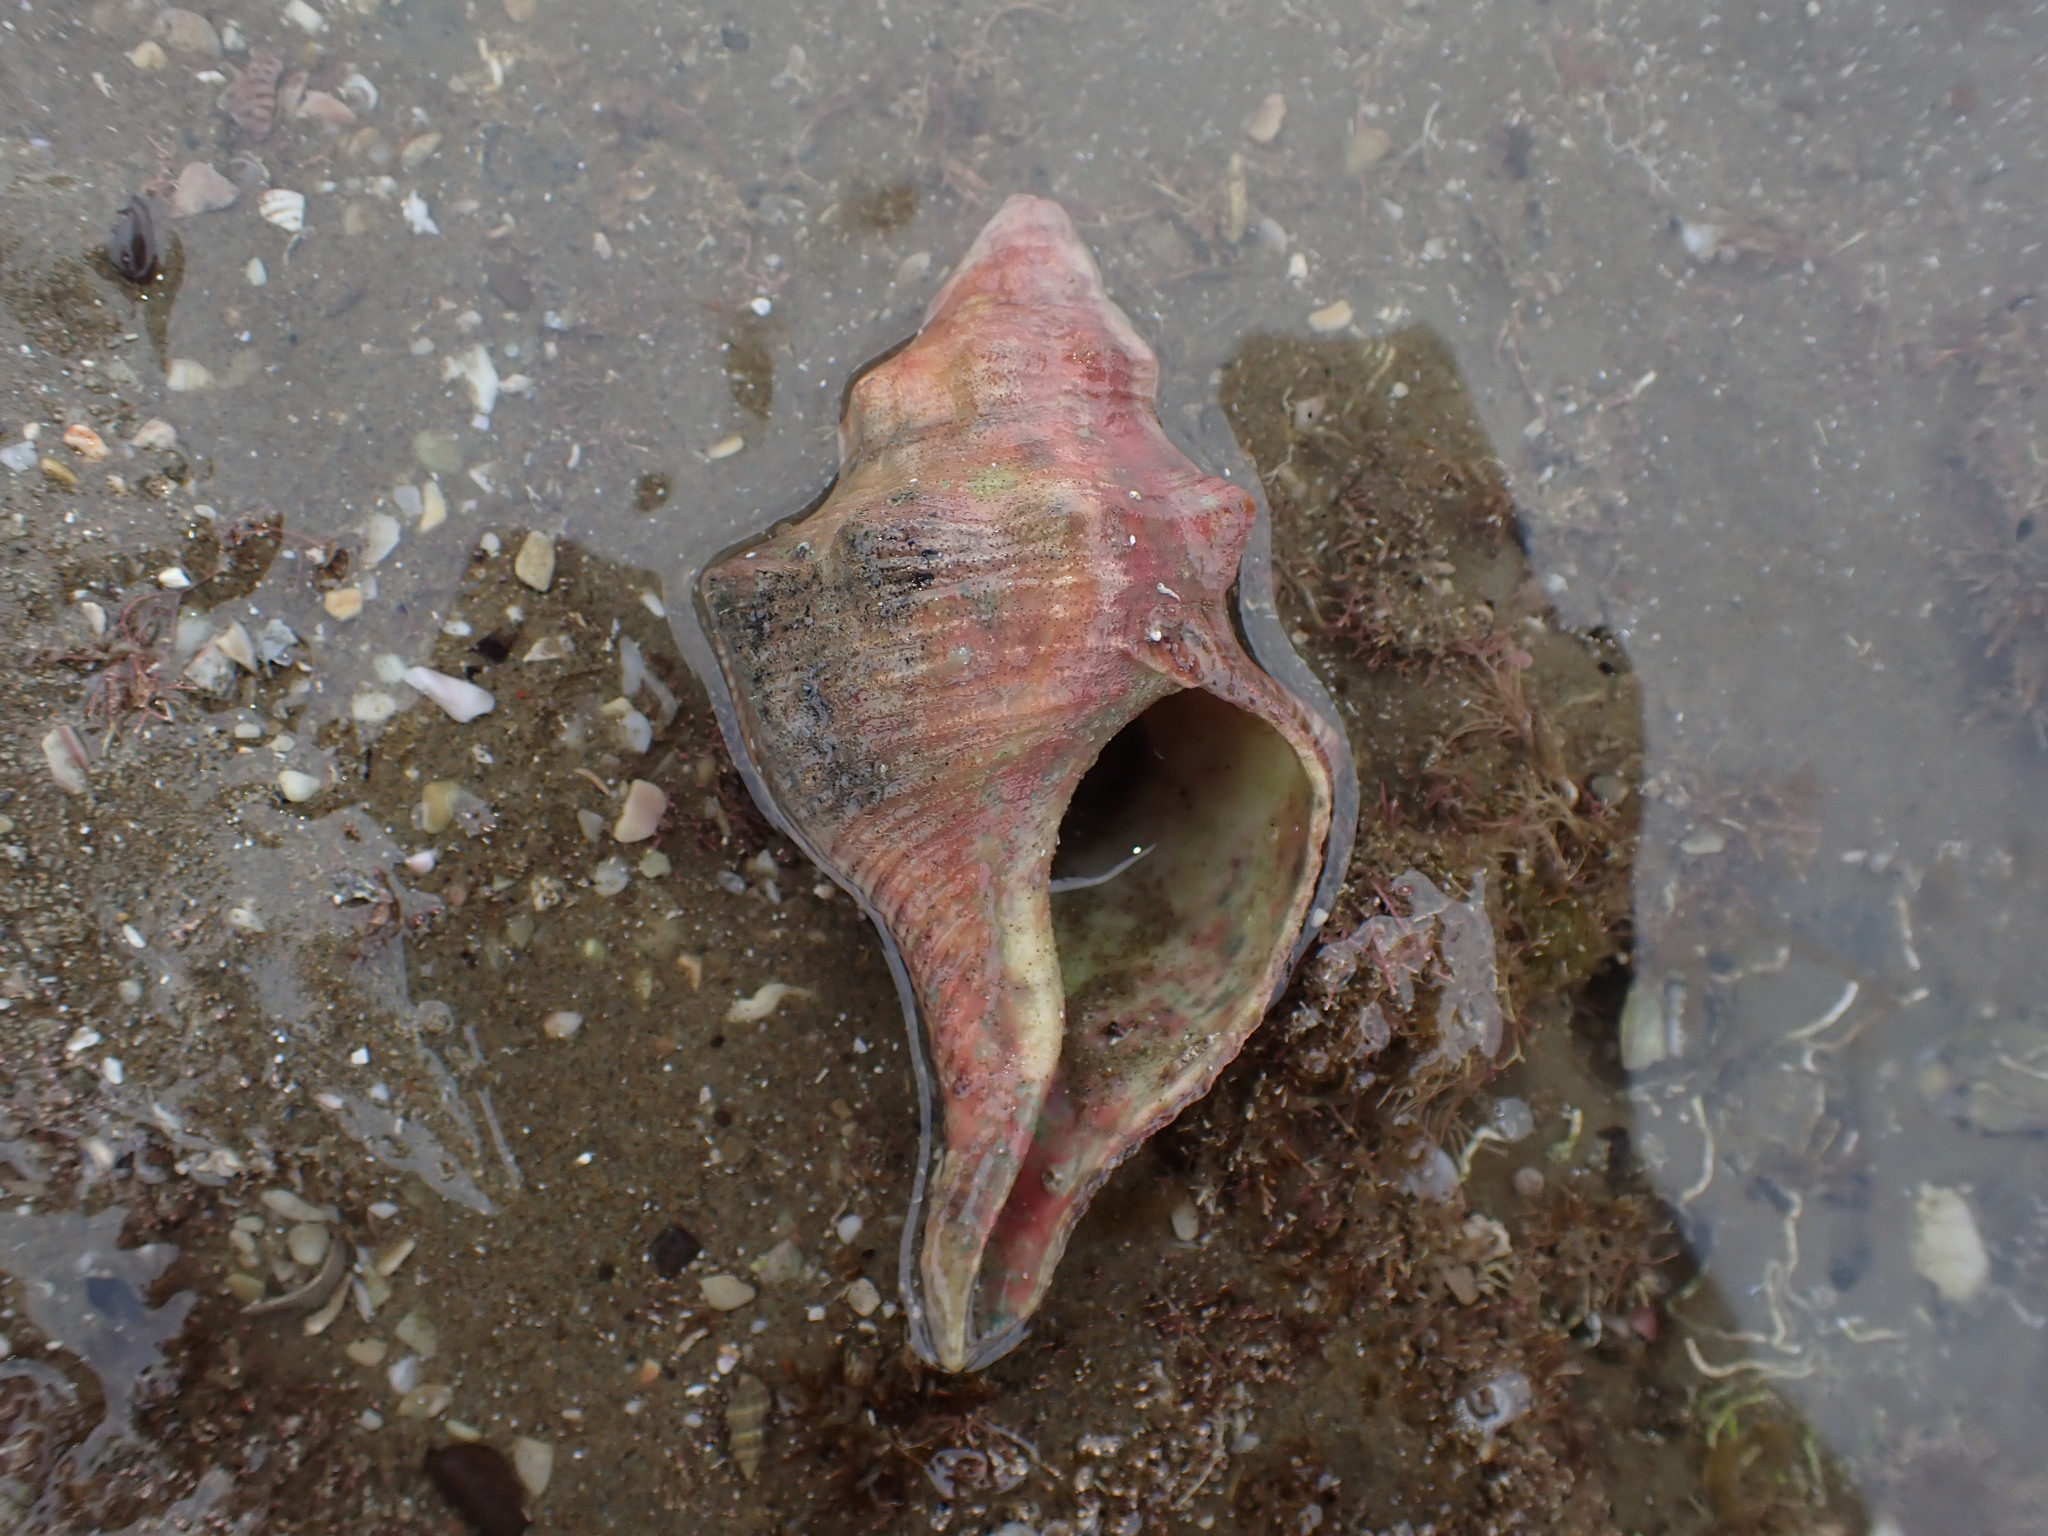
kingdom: Animalia
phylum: Mollusca
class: Gastropoda
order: Neogastropoda
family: Austrosiphonidae
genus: Penion
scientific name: Penion sulcatus
